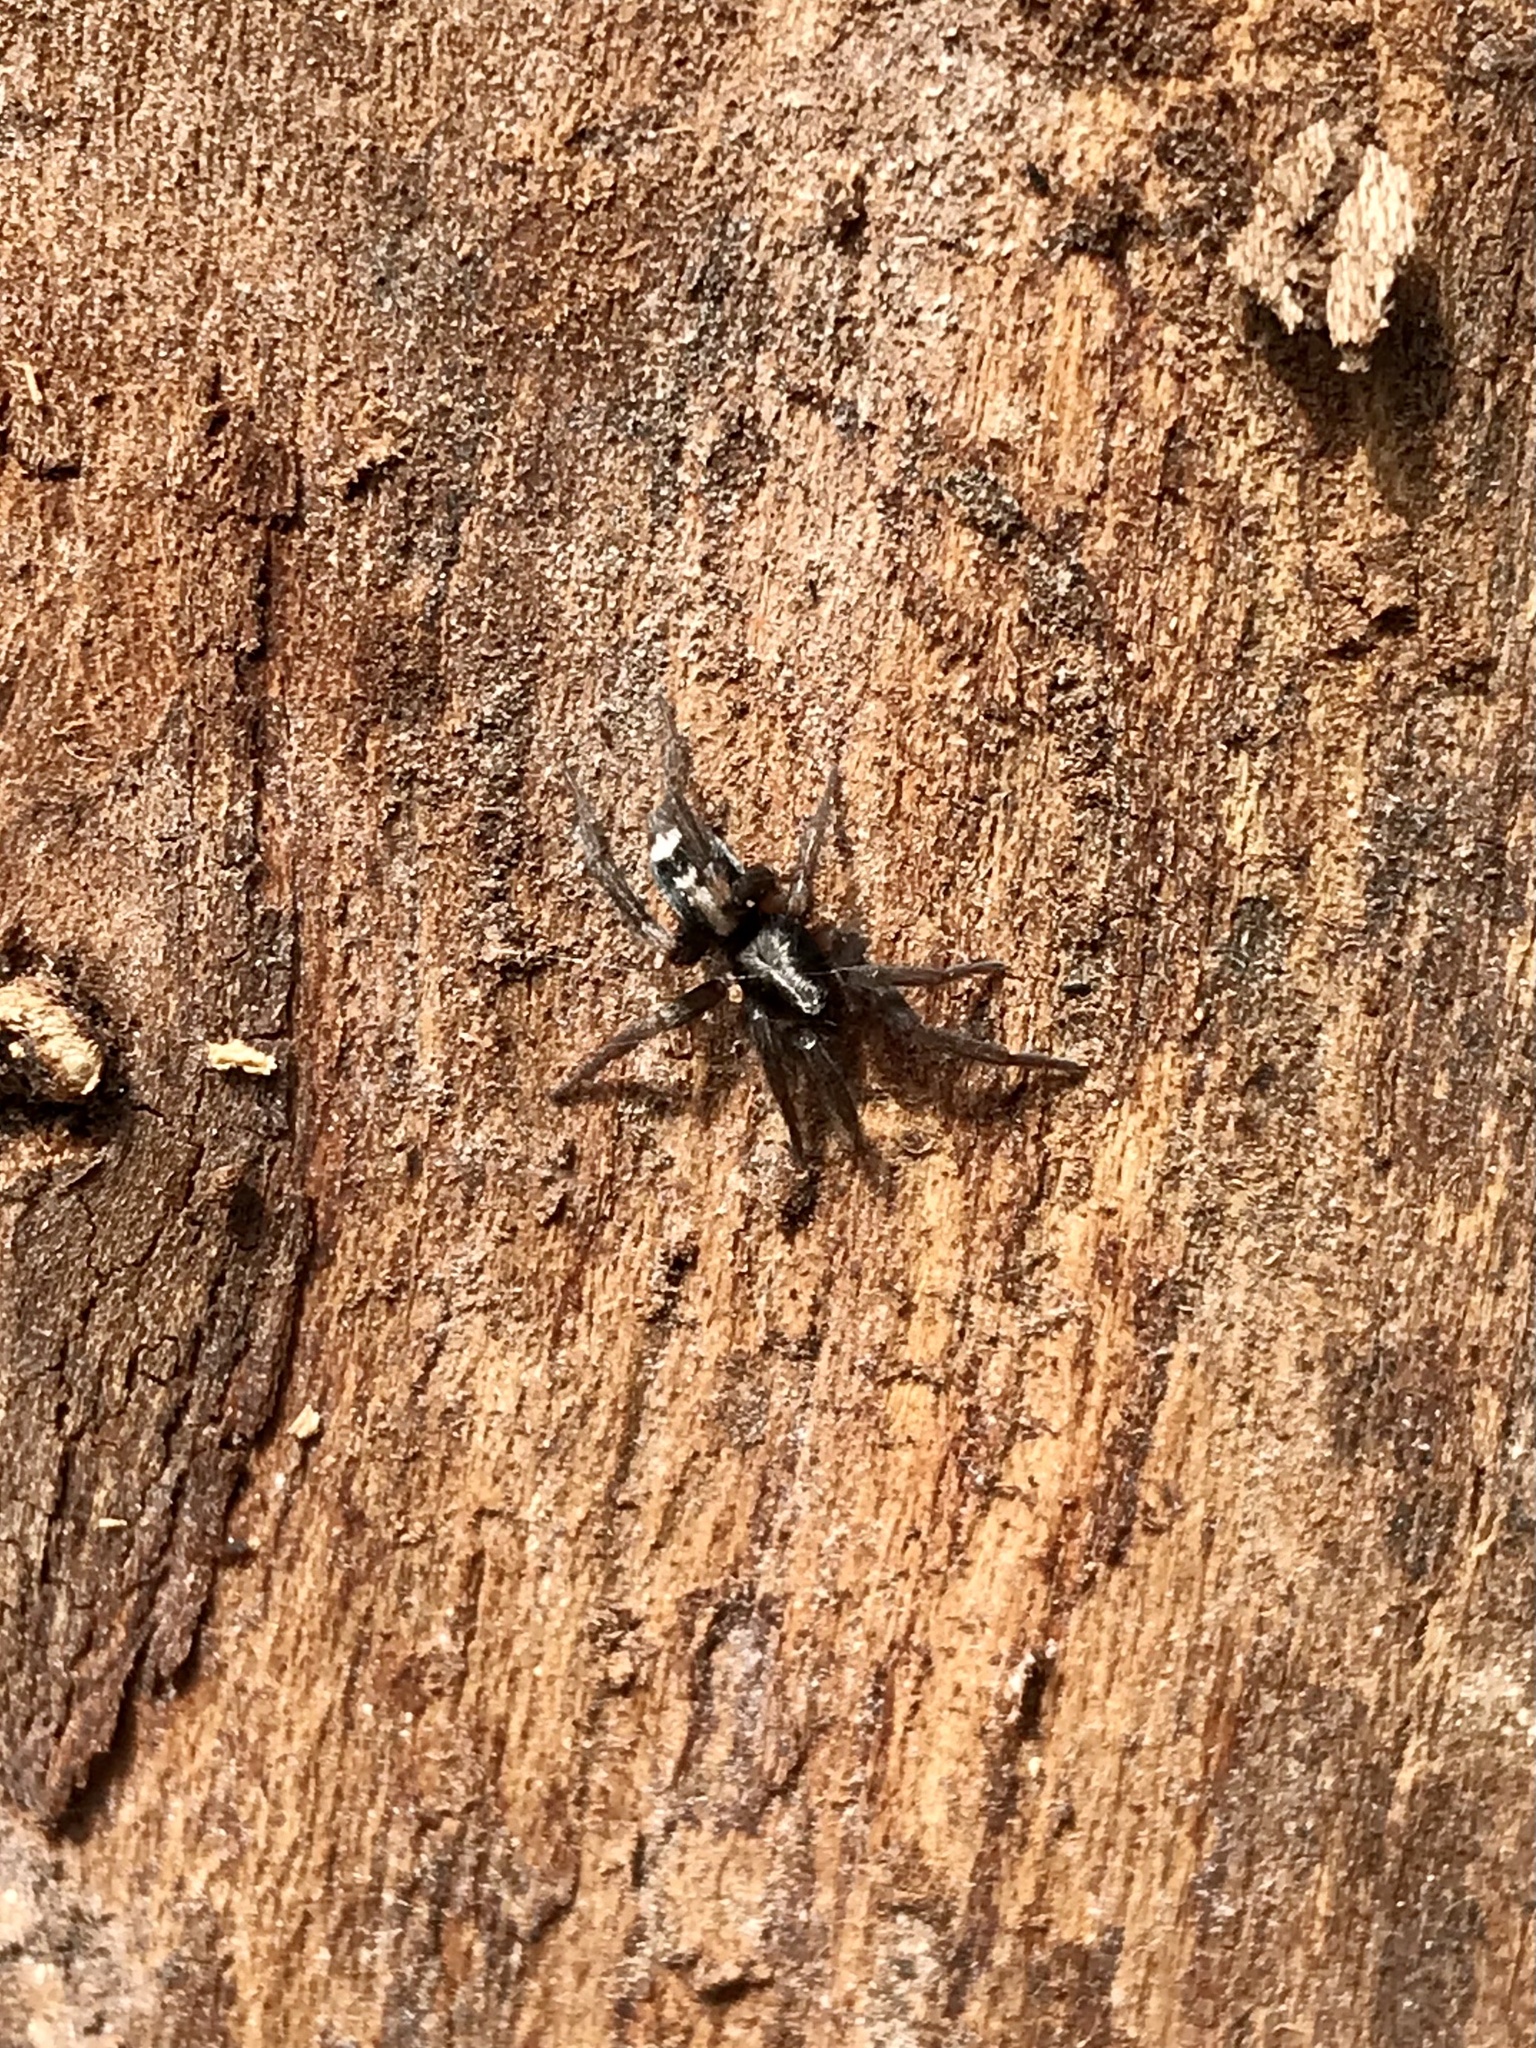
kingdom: Animalia
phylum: Arthropoda
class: Arachnida
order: Araneae
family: Gnaphosidae
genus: Herpyllus
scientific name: Herpyllus ecclesiasticus
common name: Eastern parson spider
